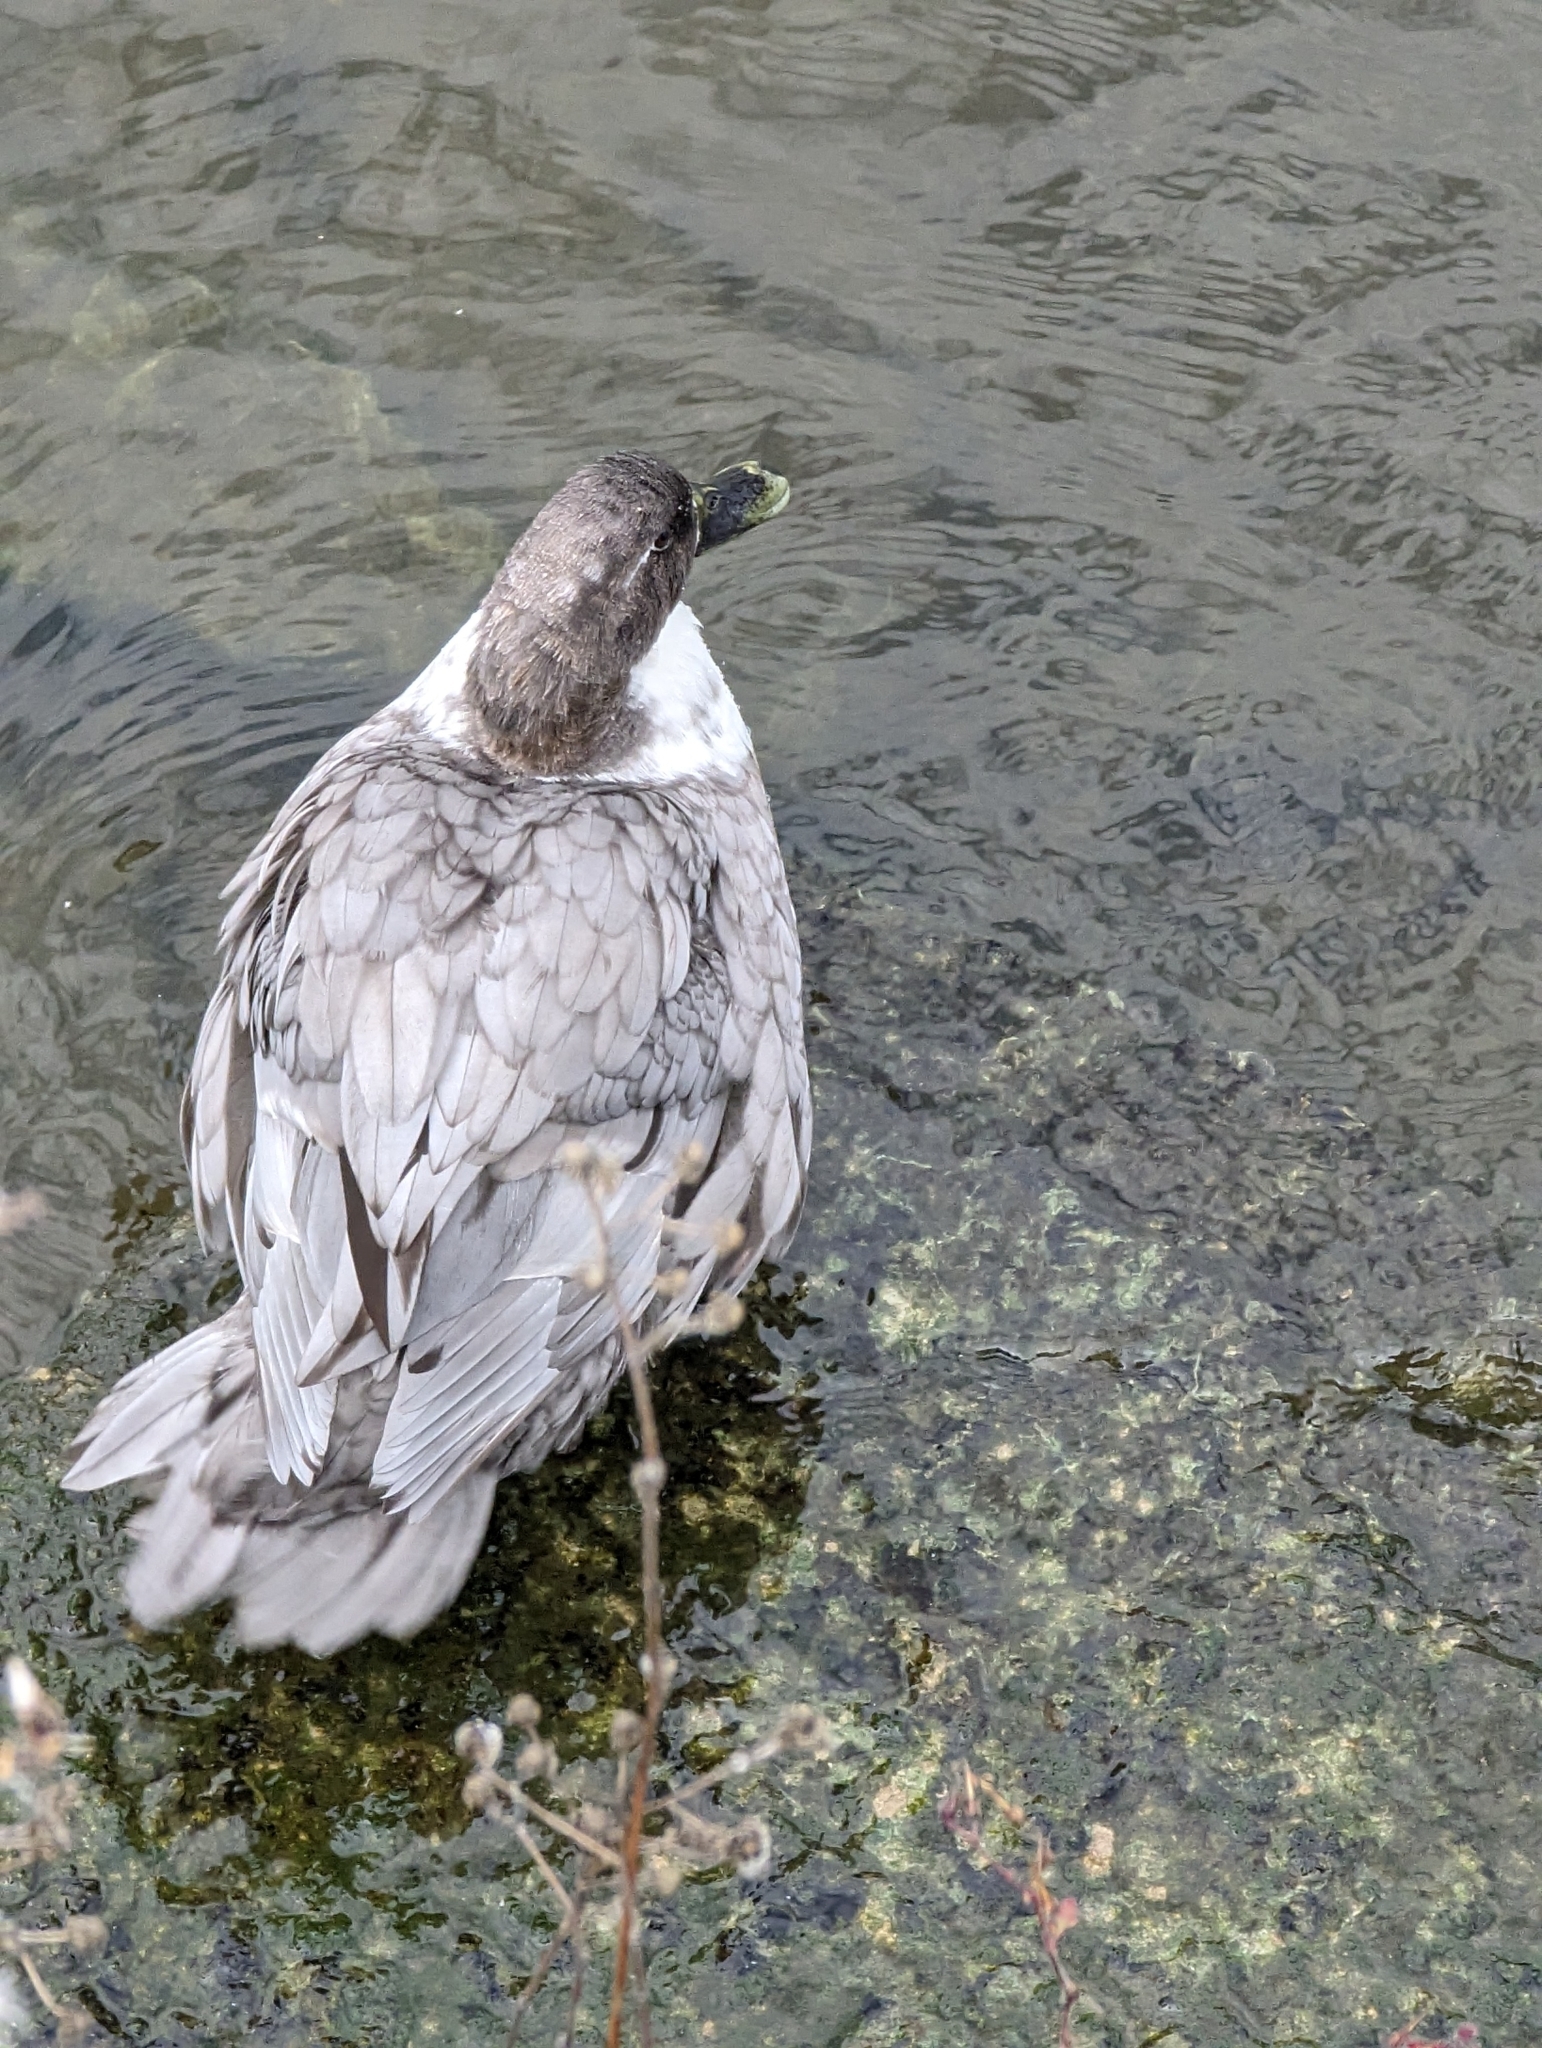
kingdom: Animalia
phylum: Chordata
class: Aves
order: Anseriformes
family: Anatidae
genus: Anas
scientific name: Anas platyrhynchos
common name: Mallard
